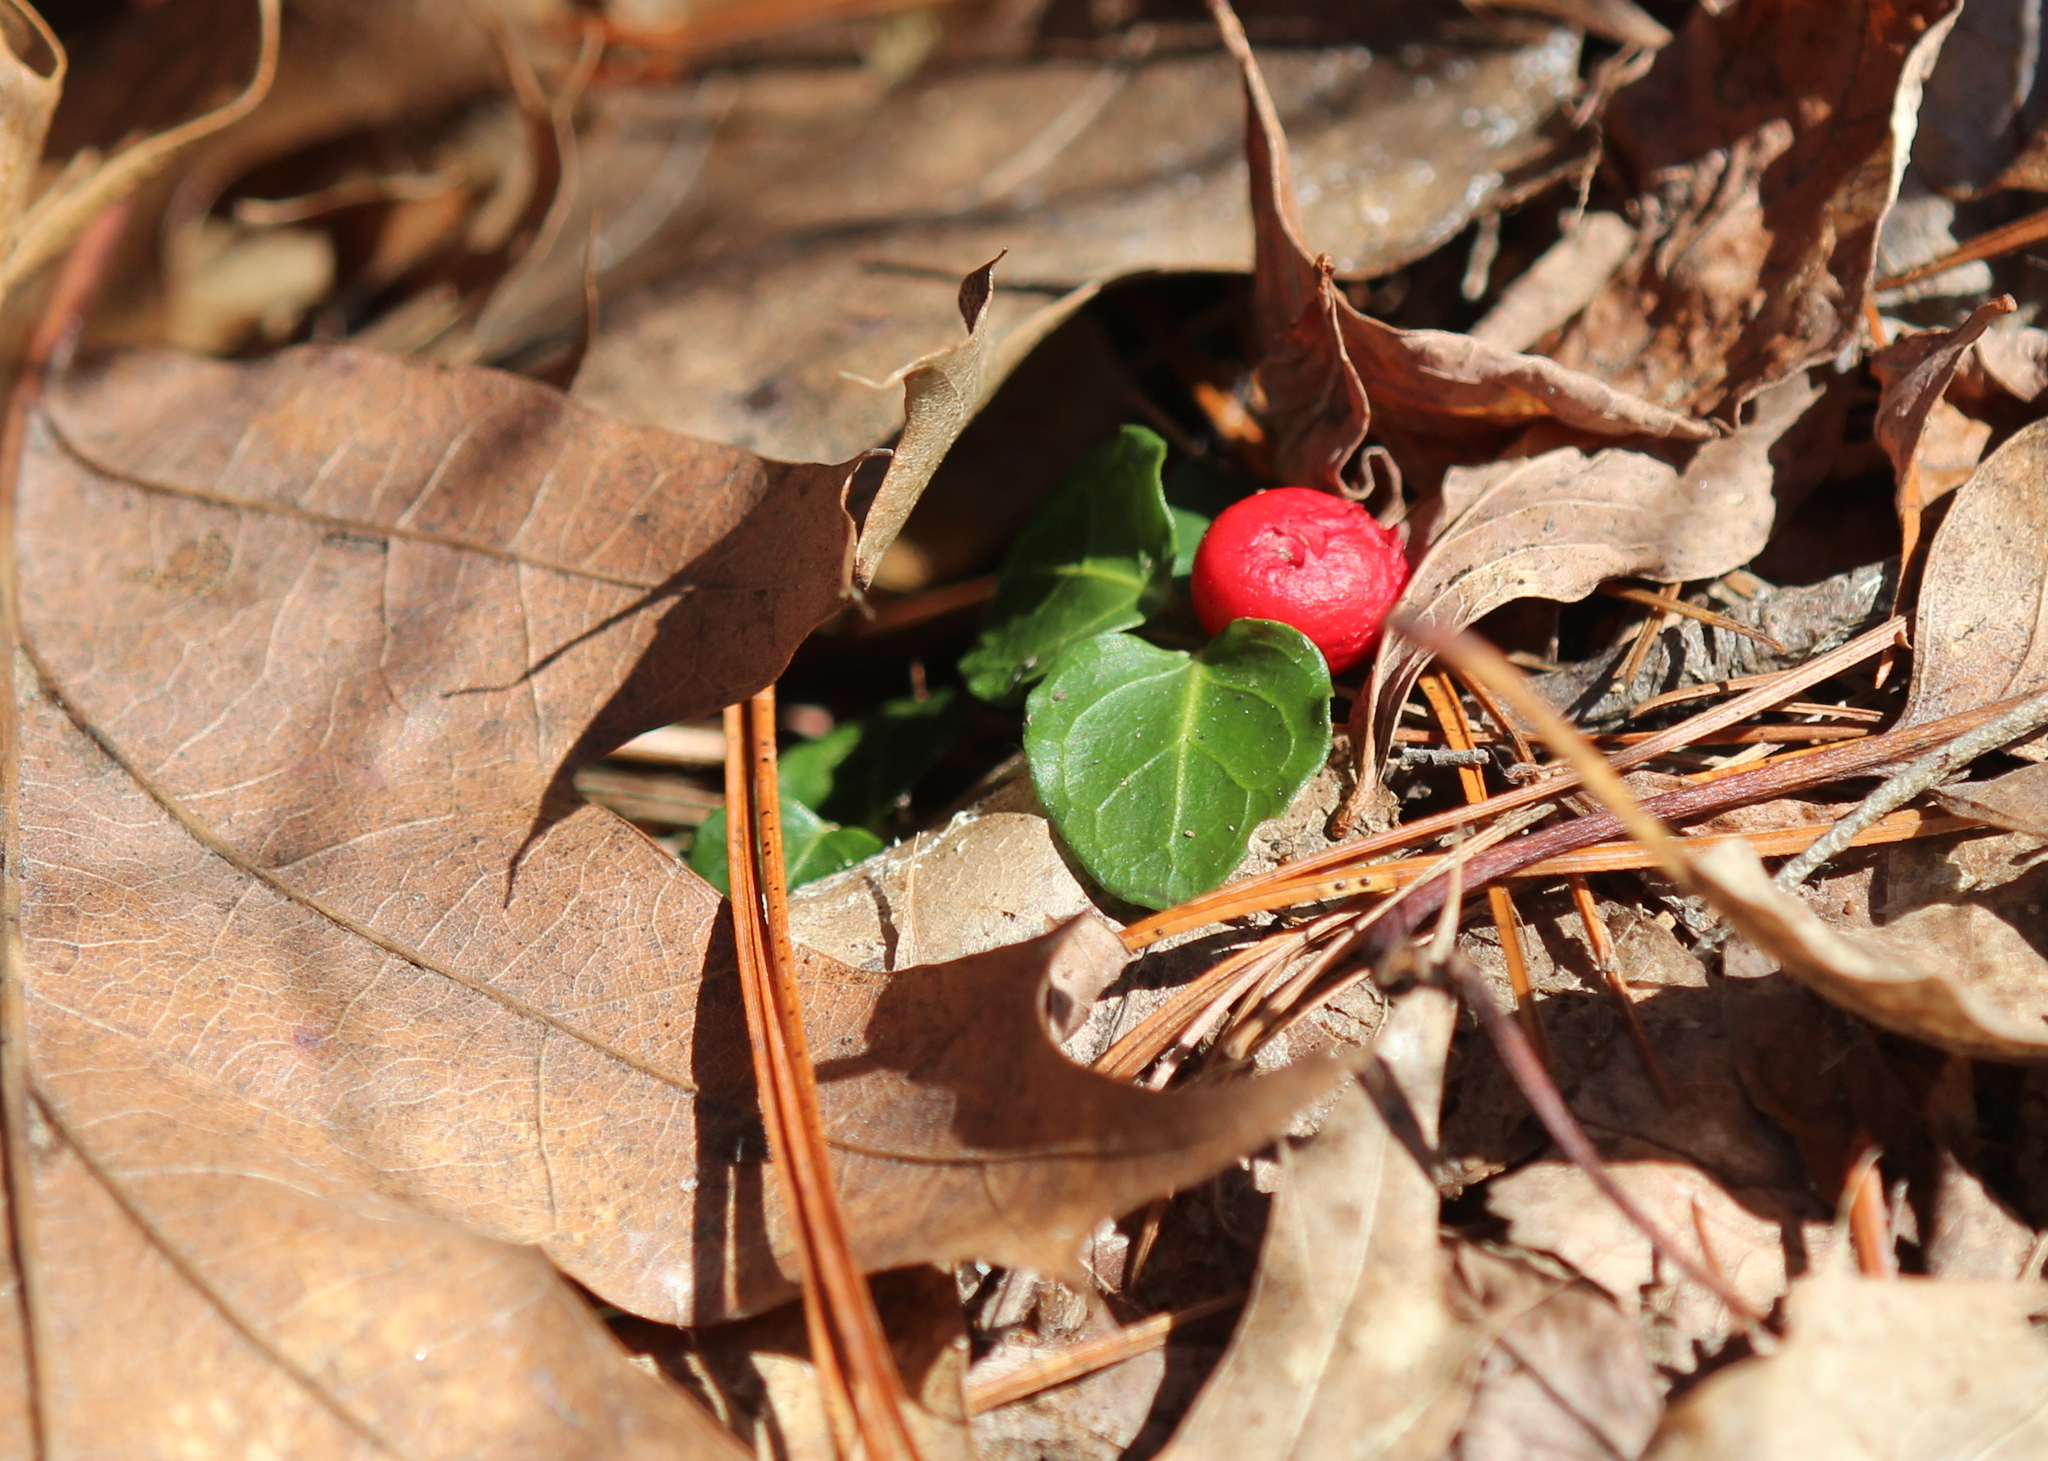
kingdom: Plantae
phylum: Tracheophyta
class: Magnoliopsida
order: Gentianales
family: Rubiaceae
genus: Mitchella
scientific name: Mitchella repens
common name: Partridge-berry
